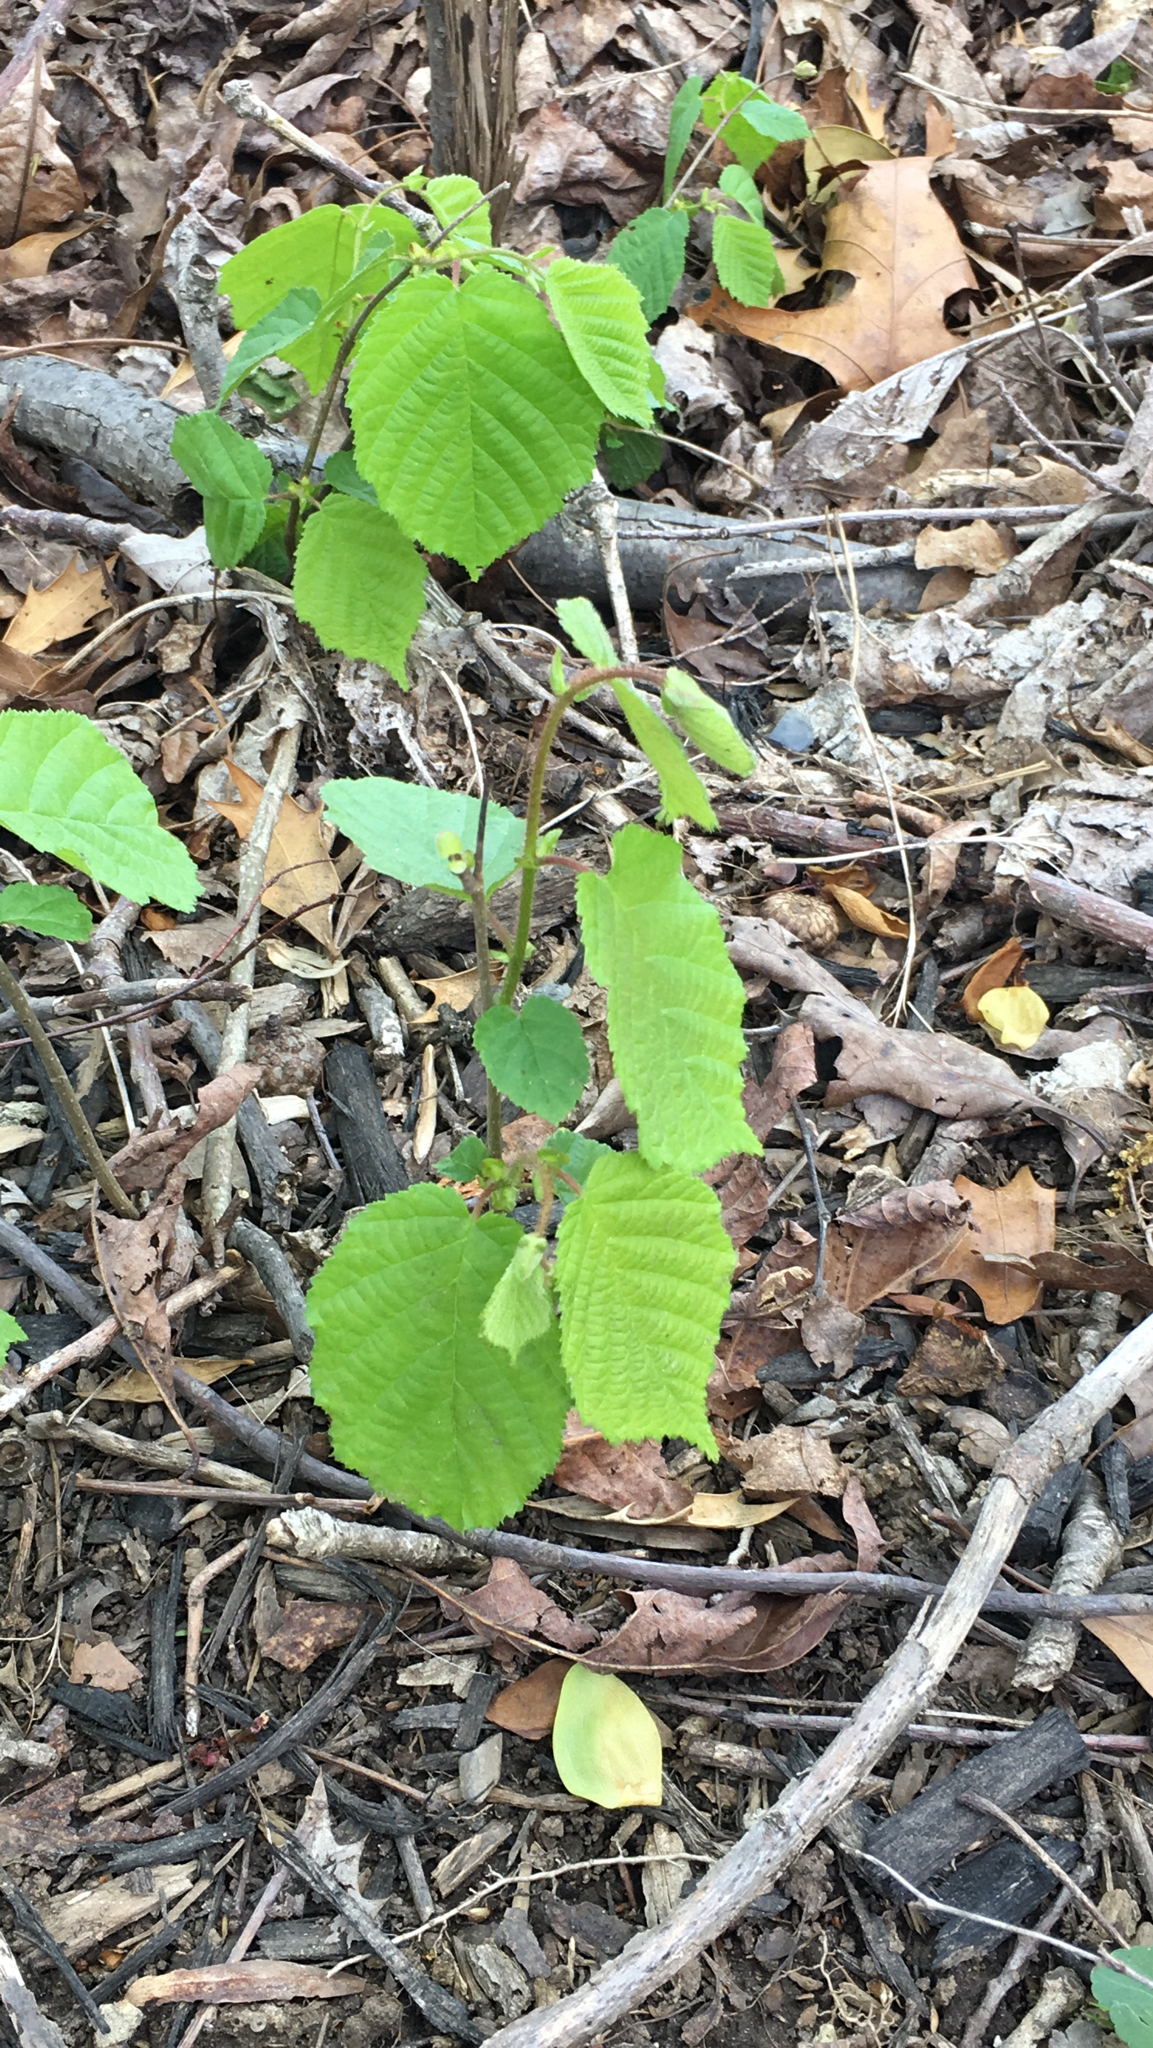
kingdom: Plantae
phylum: Tracheophyta
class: Magnoliopsida
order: Fagales
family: Betulaceae
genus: Corylus
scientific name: Corylus americana
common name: American hazel
